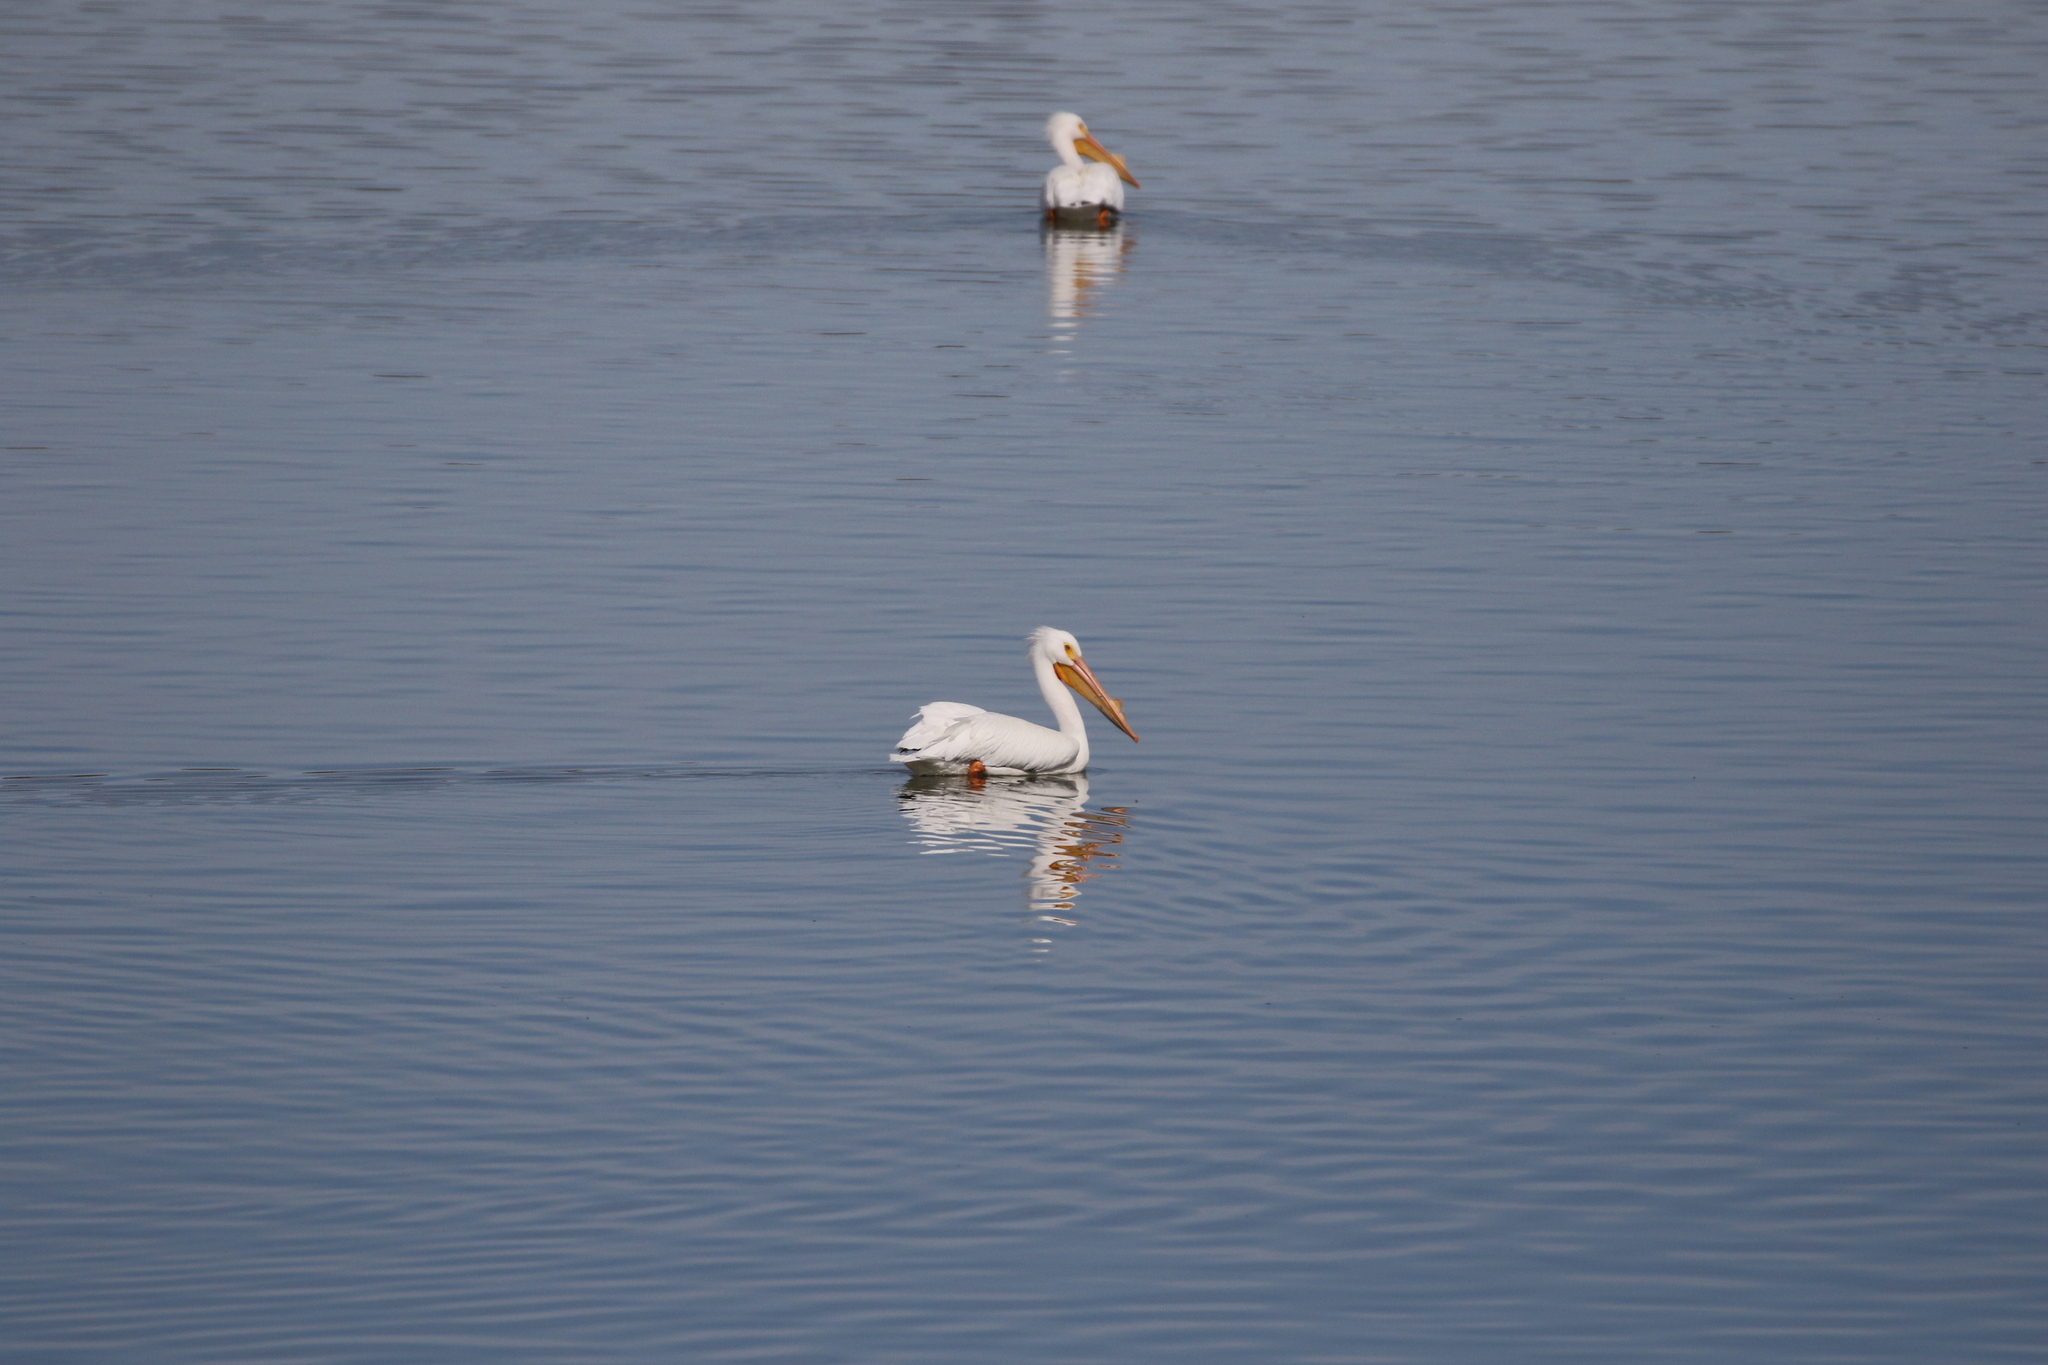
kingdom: Animalia
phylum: Chordata
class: Aves
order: Pelecaniformes
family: Pelecanidae
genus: Pelecanus
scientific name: Pelecanus erythrorhynchos
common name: American white pelican
